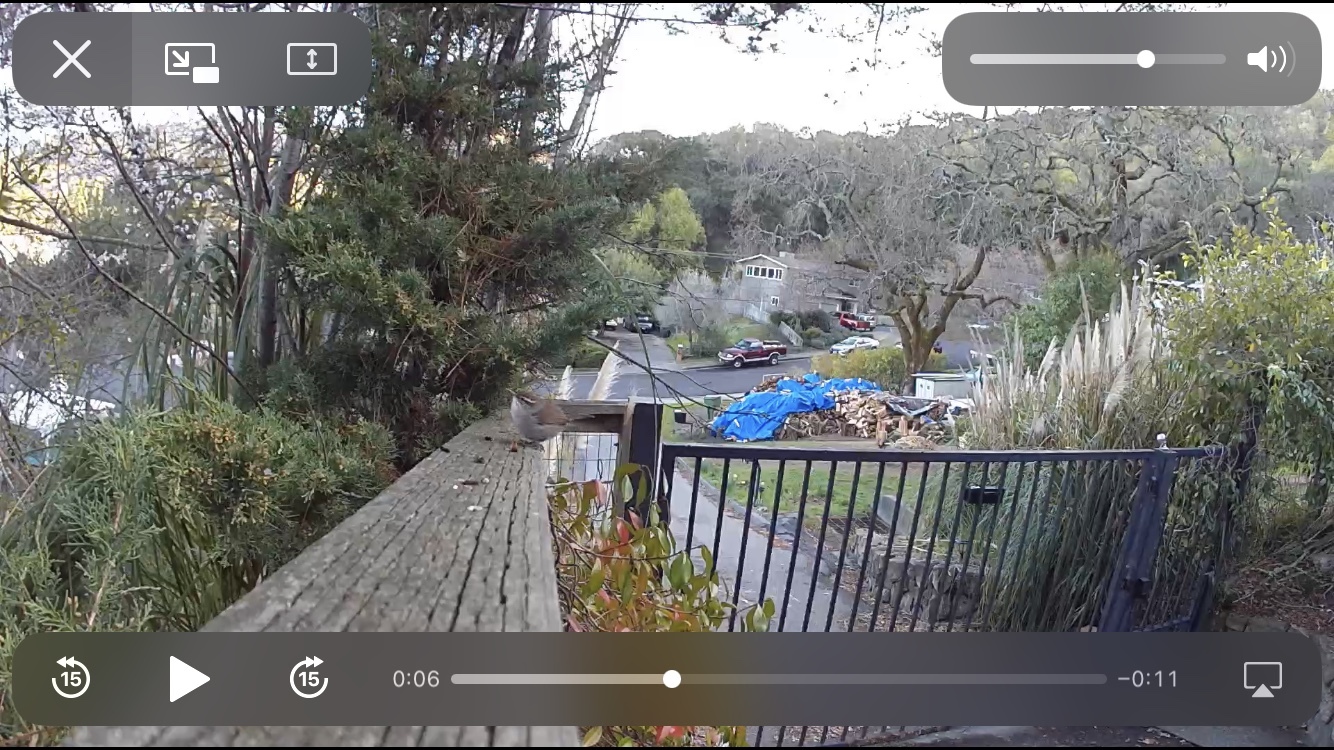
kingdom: Animalia
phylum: Chordata
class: Aves
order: Passeriformes
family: Troglodytidae
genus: Thryomanes
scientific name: Thryomanes bewickii
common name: Bewick's wren
